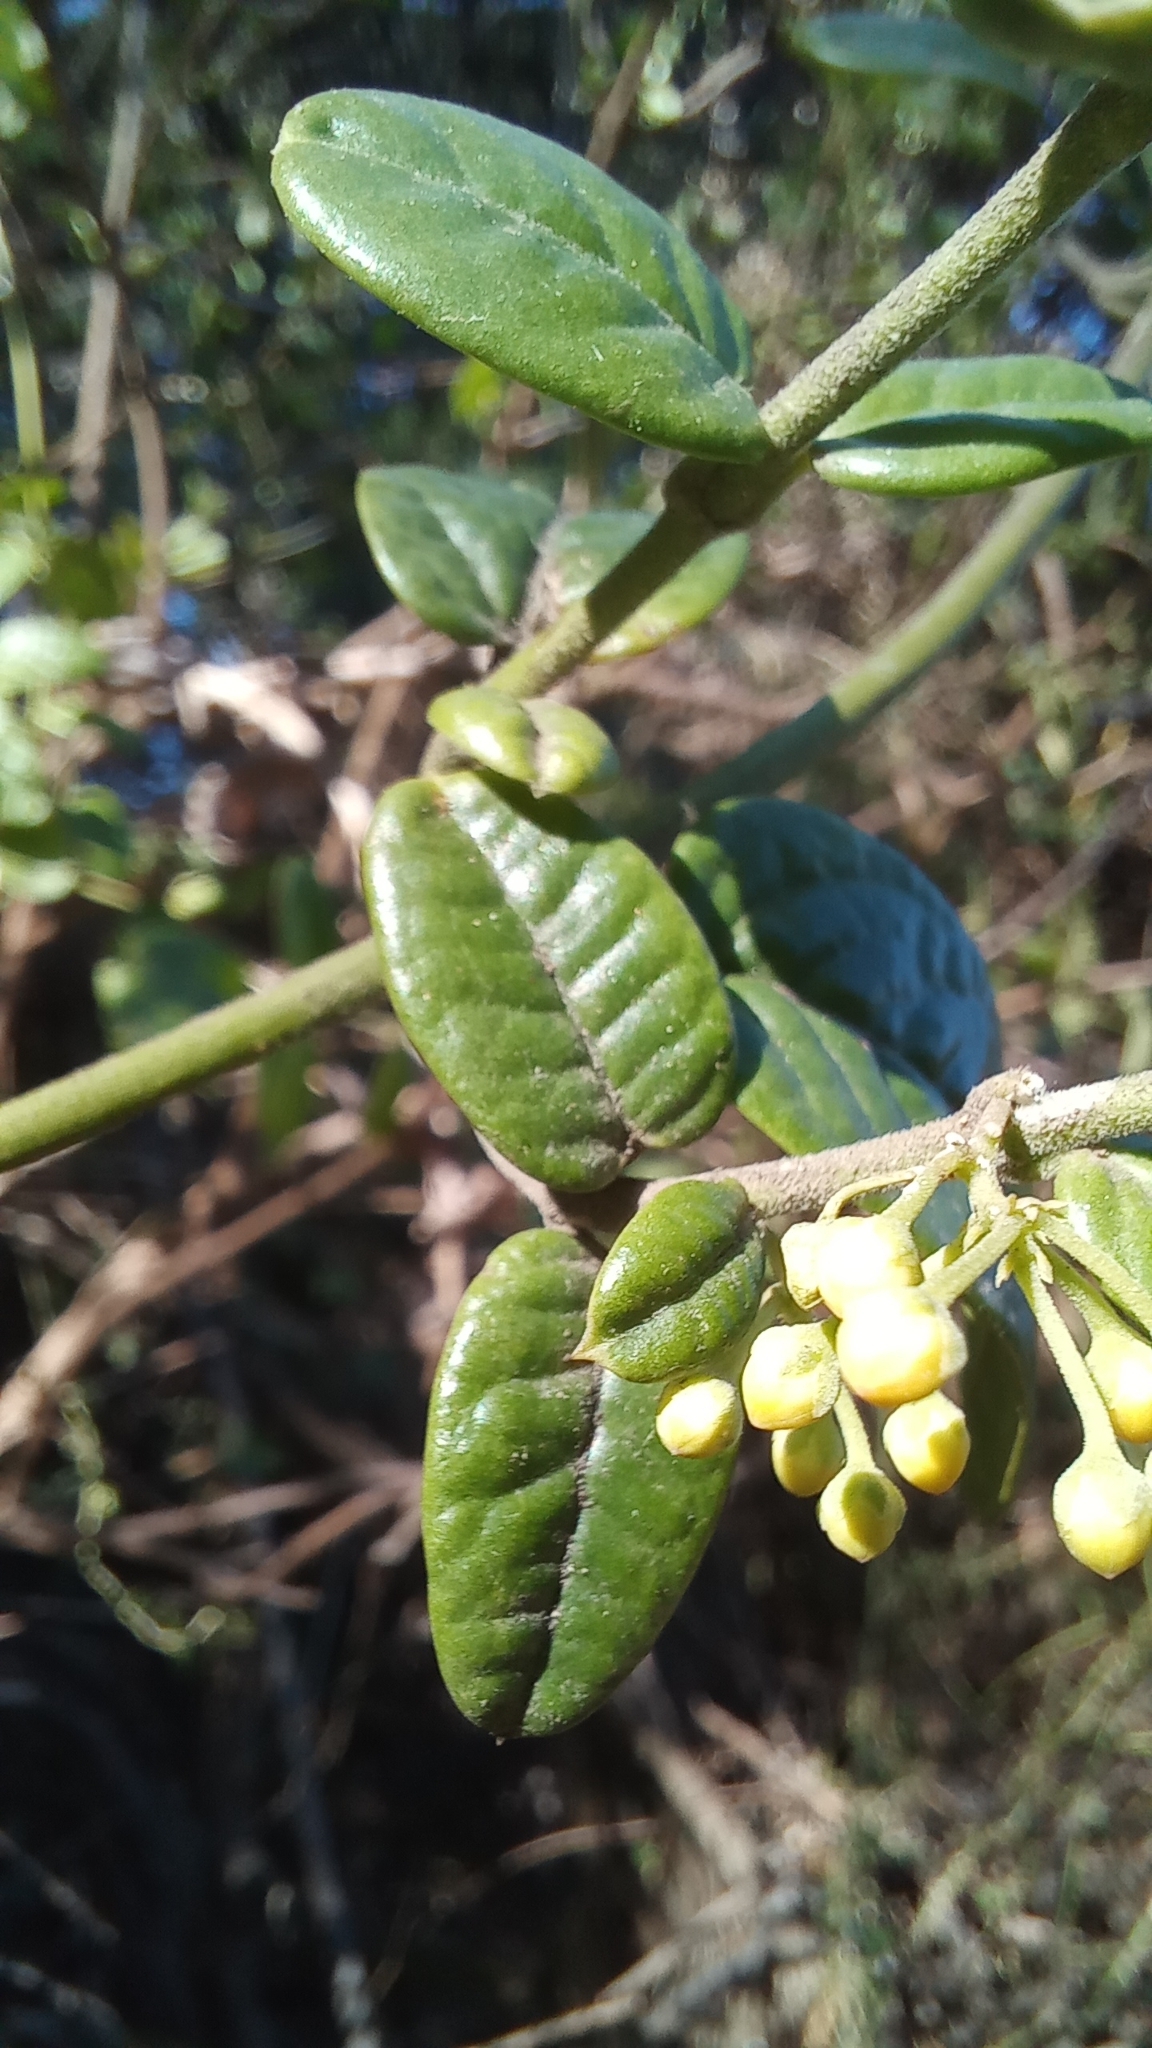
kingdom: Plantae
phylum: Tracheophyta
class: Magnoliopsida
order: Gentianales
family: Apocynaceae
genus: Diplolepis
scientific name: Diplolepis diemii
